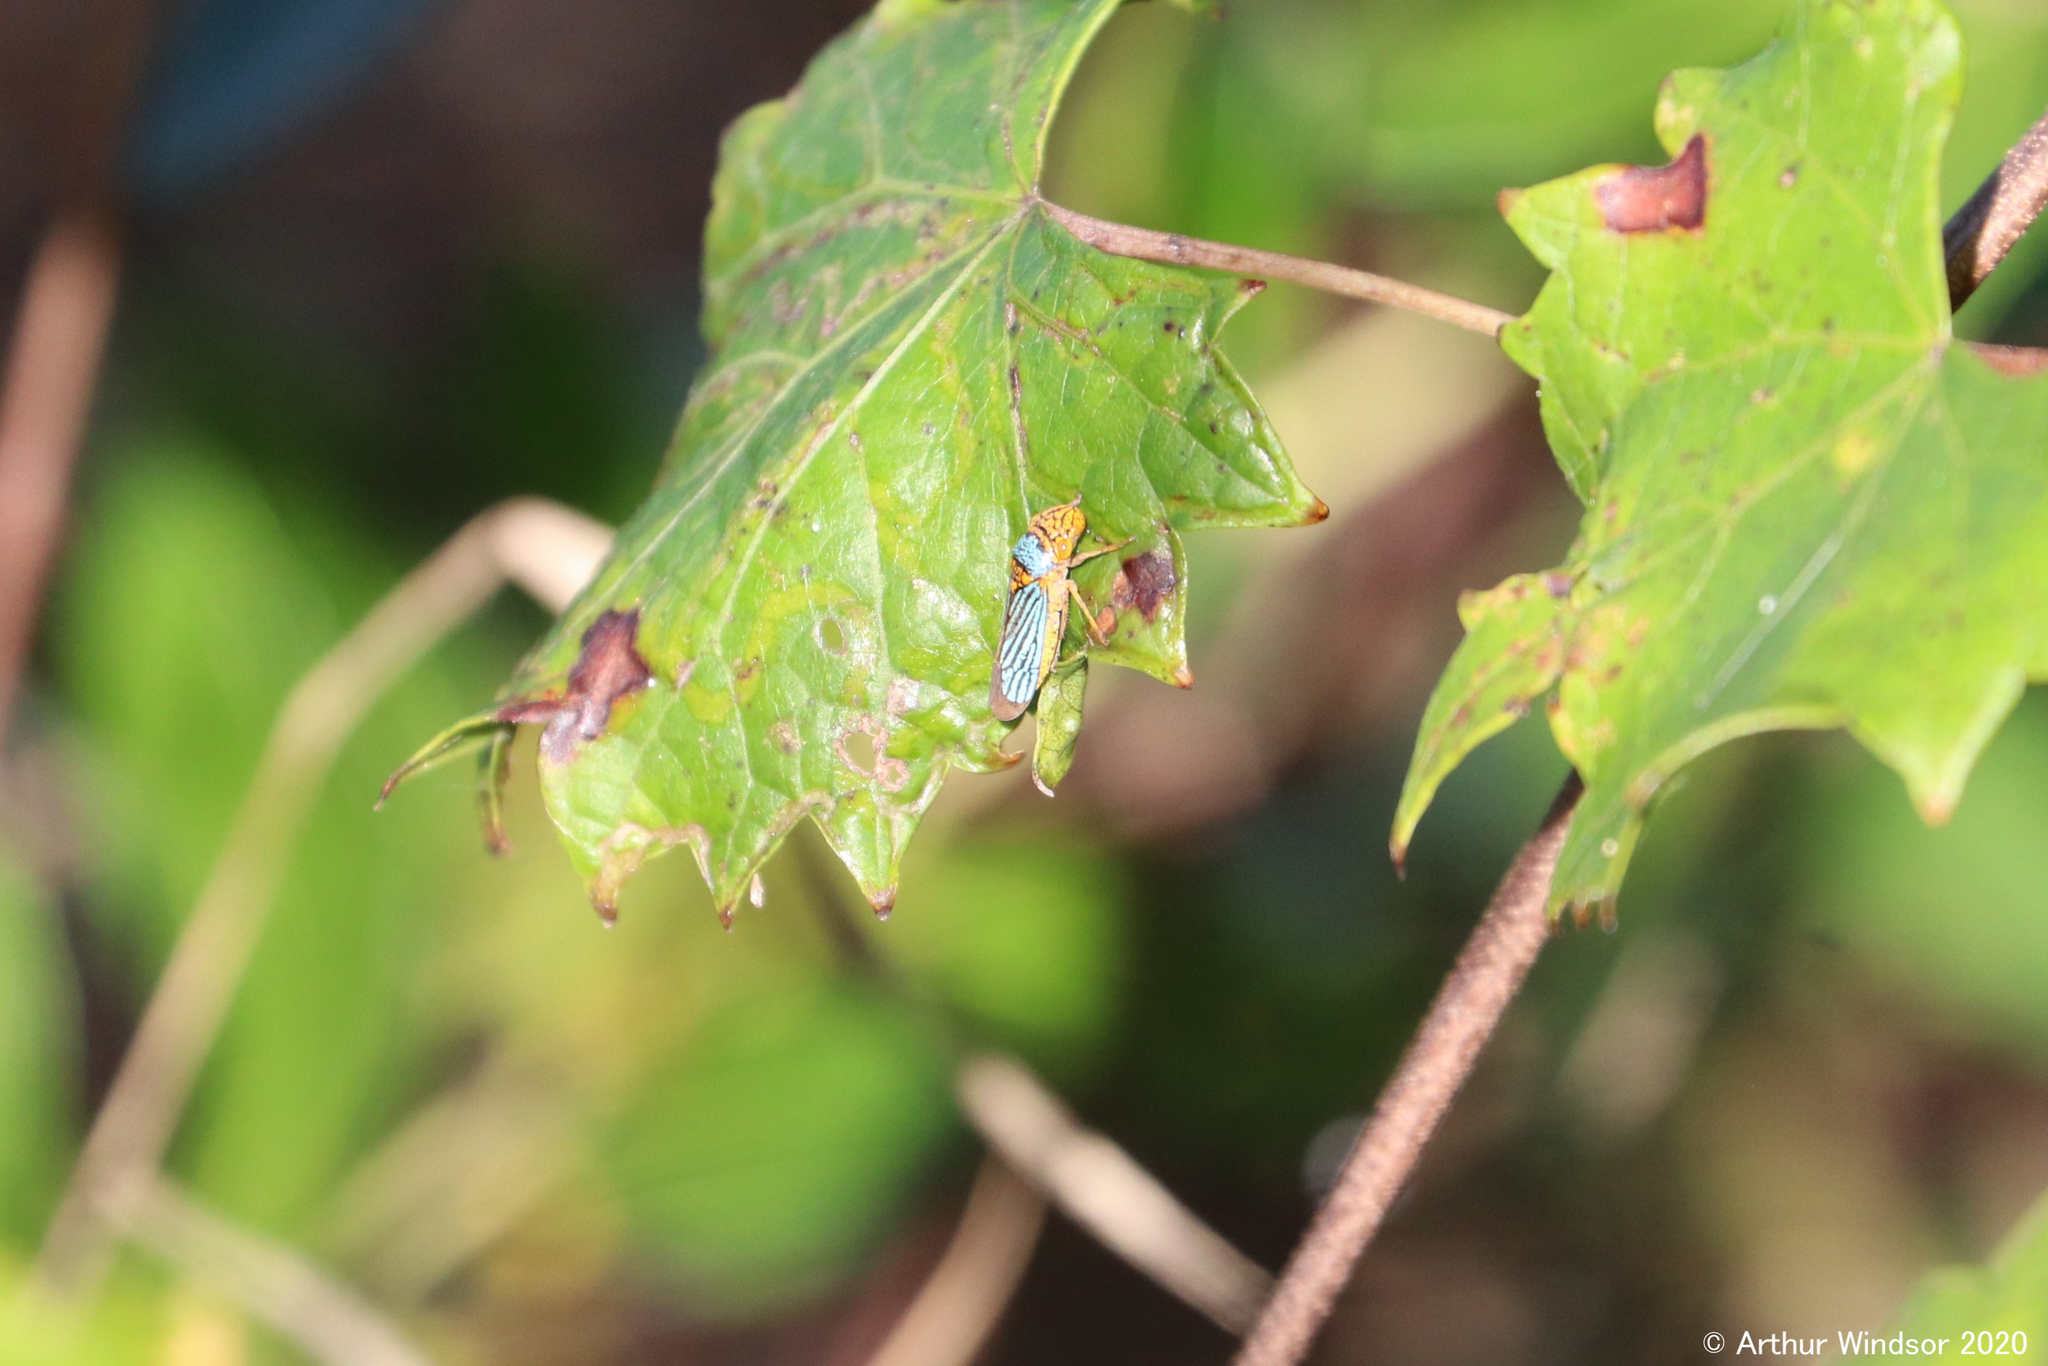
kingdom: Animalia
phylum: Arthropoda
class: Insecta
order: Hemiptera
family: Cicadellidae
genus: Oncometopia
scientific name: Oncometopia nigricans
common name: Black-winged sharpshooter
